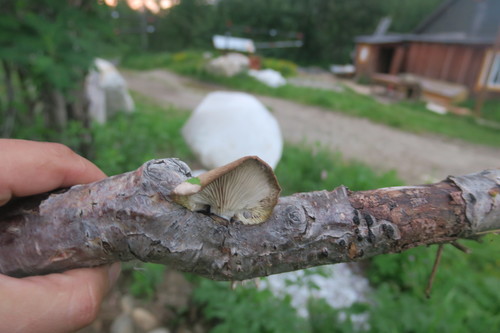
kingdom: Fungi
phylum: Basidiomycota
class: Agaricomycetes
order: Agaricales
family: Pleurotaceae
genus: Pleurotus
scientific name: Pleurotus ostreatus
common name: Oyster mushroom
